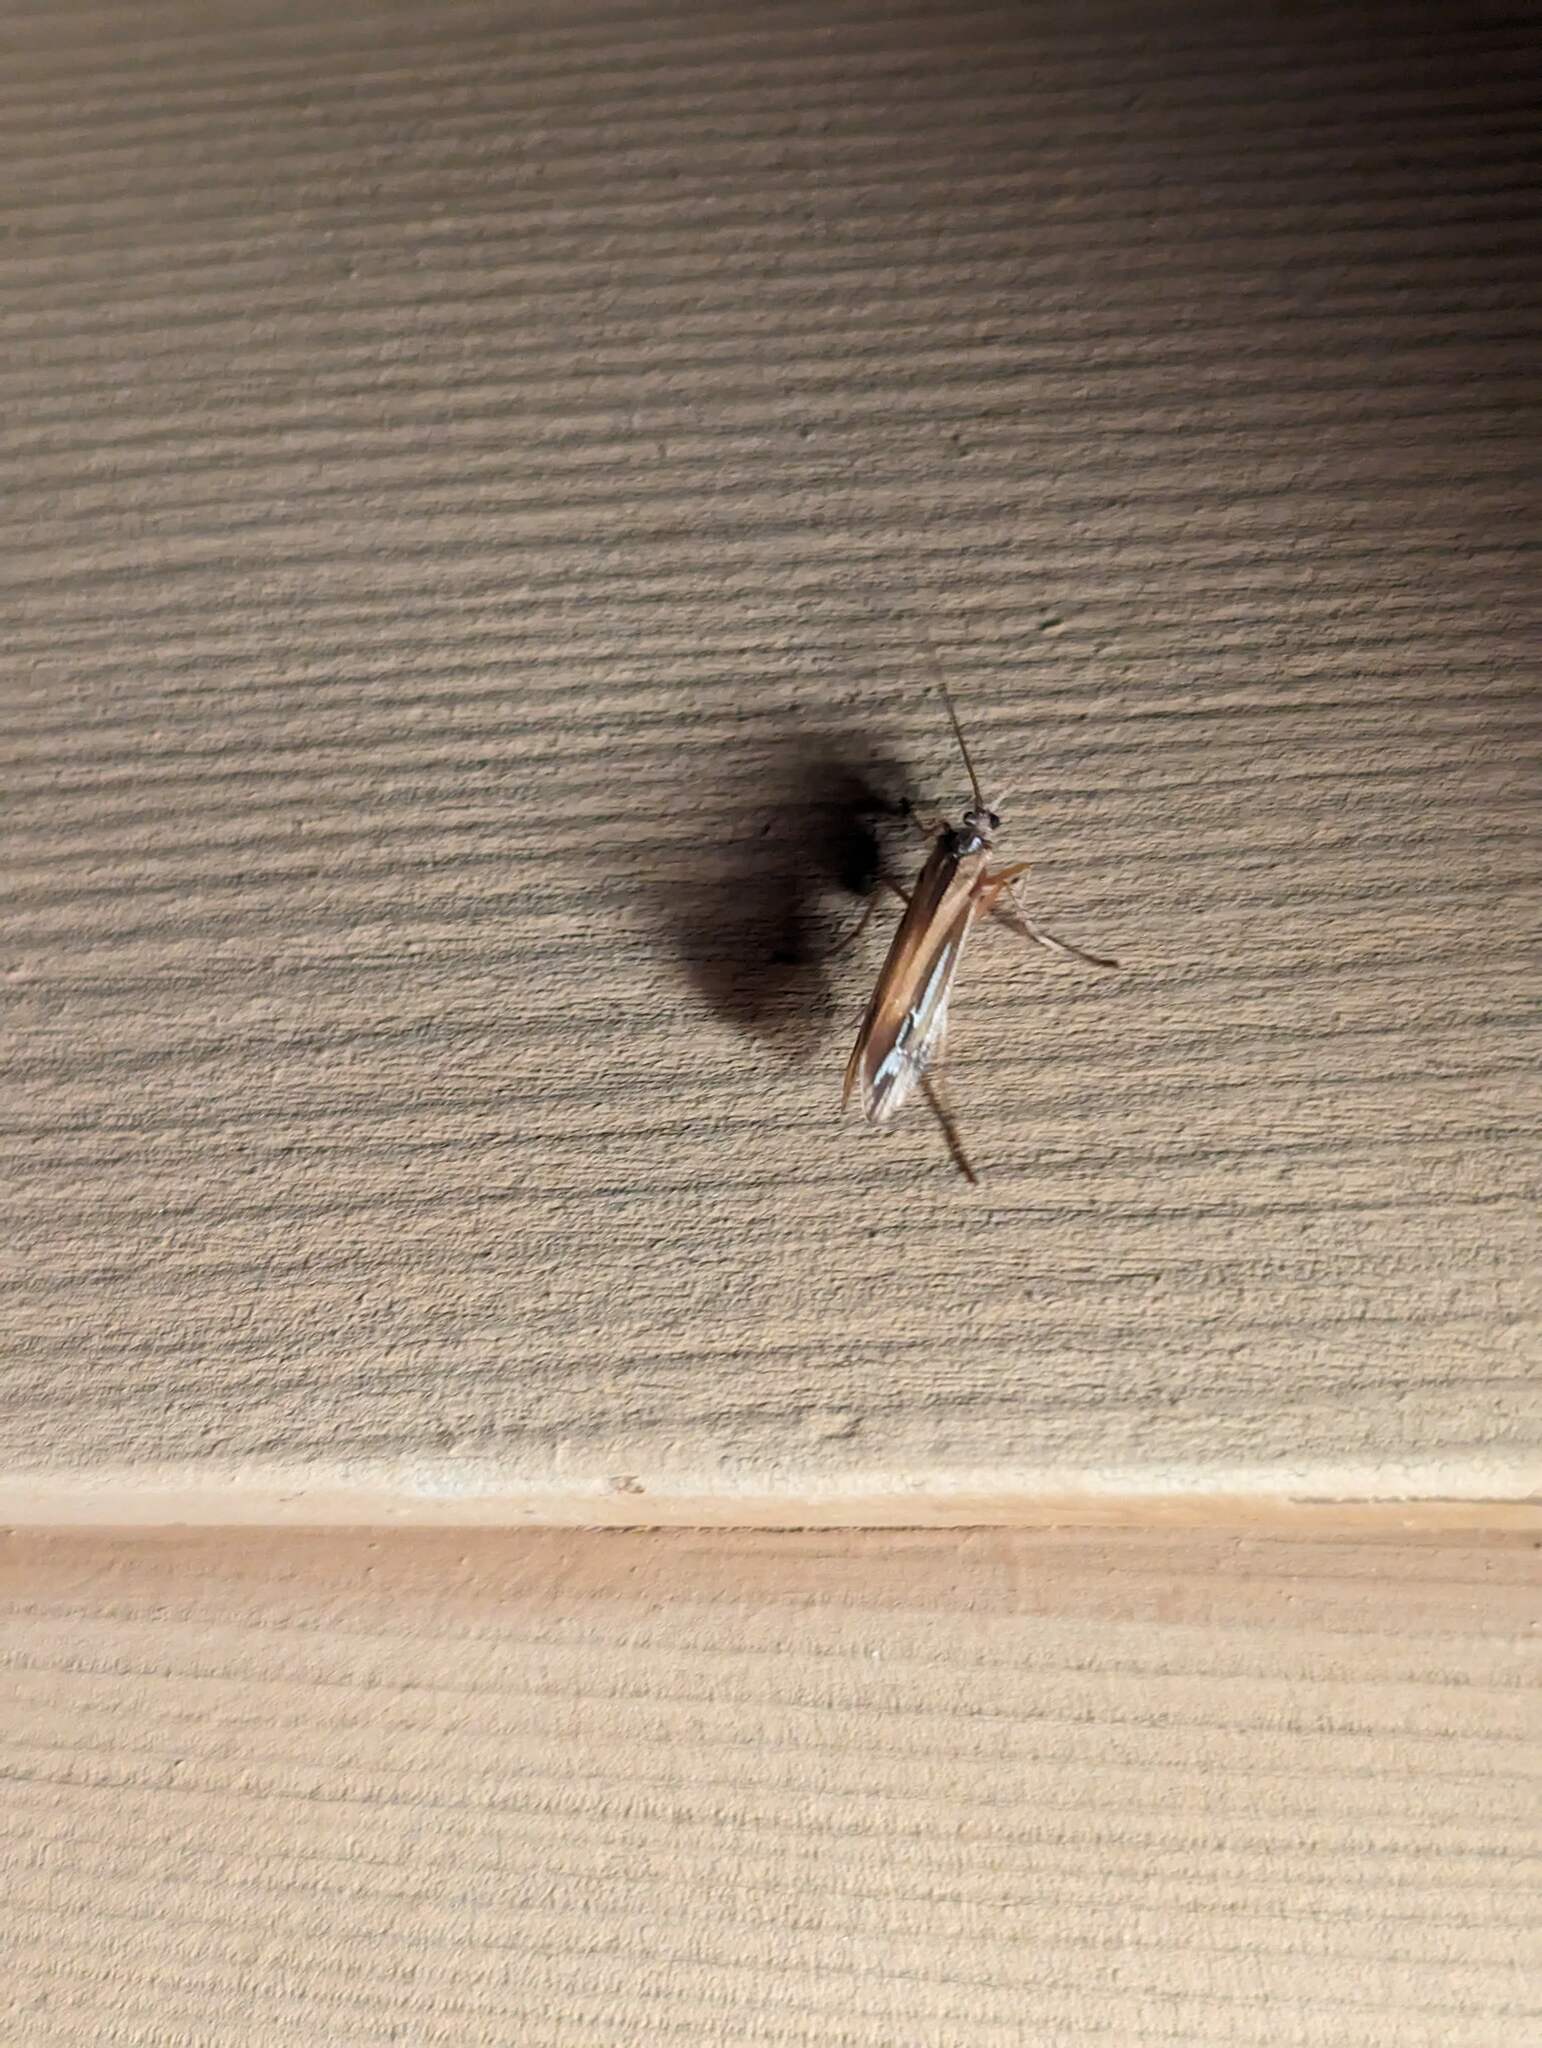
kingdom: Animalia
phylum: Arthropoda
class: Insecta
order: Trichoptera
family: Limnephilidae
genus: Limnephilus
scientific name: Limnephilus ornatus
